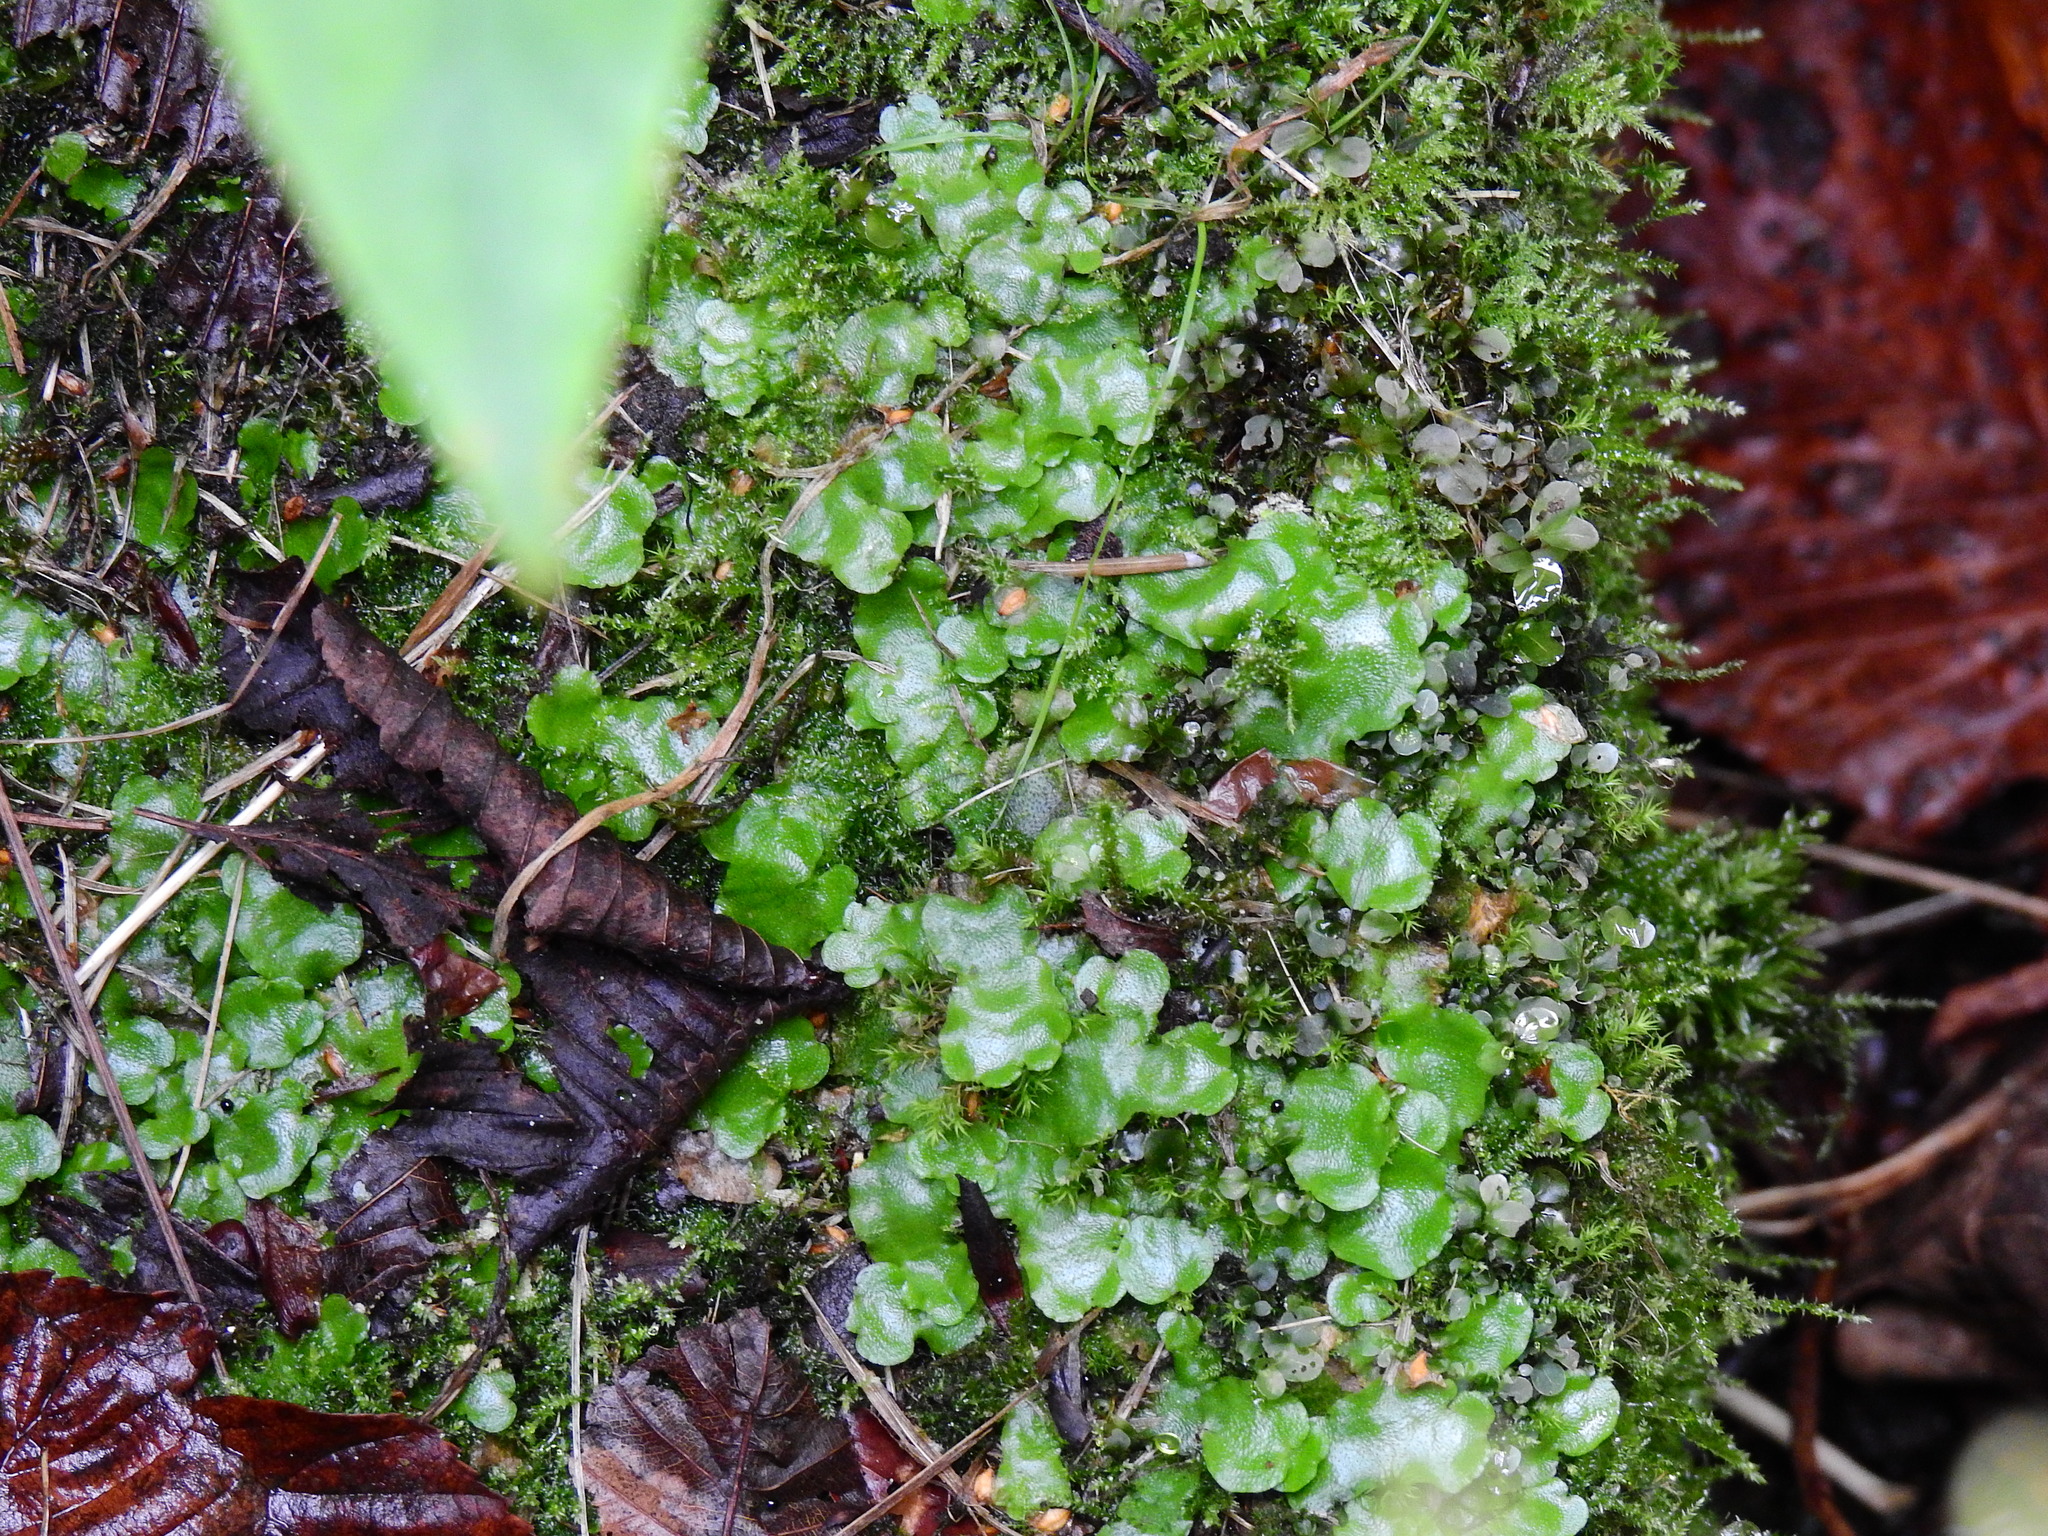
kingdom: Plantae
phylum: Marchantiophyta
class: Marchantiopsida
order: Lunulariales
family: Lunulariaceae
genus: Lunularia
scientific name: Lunularia cruciata
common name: Crescent-cup liverwort
